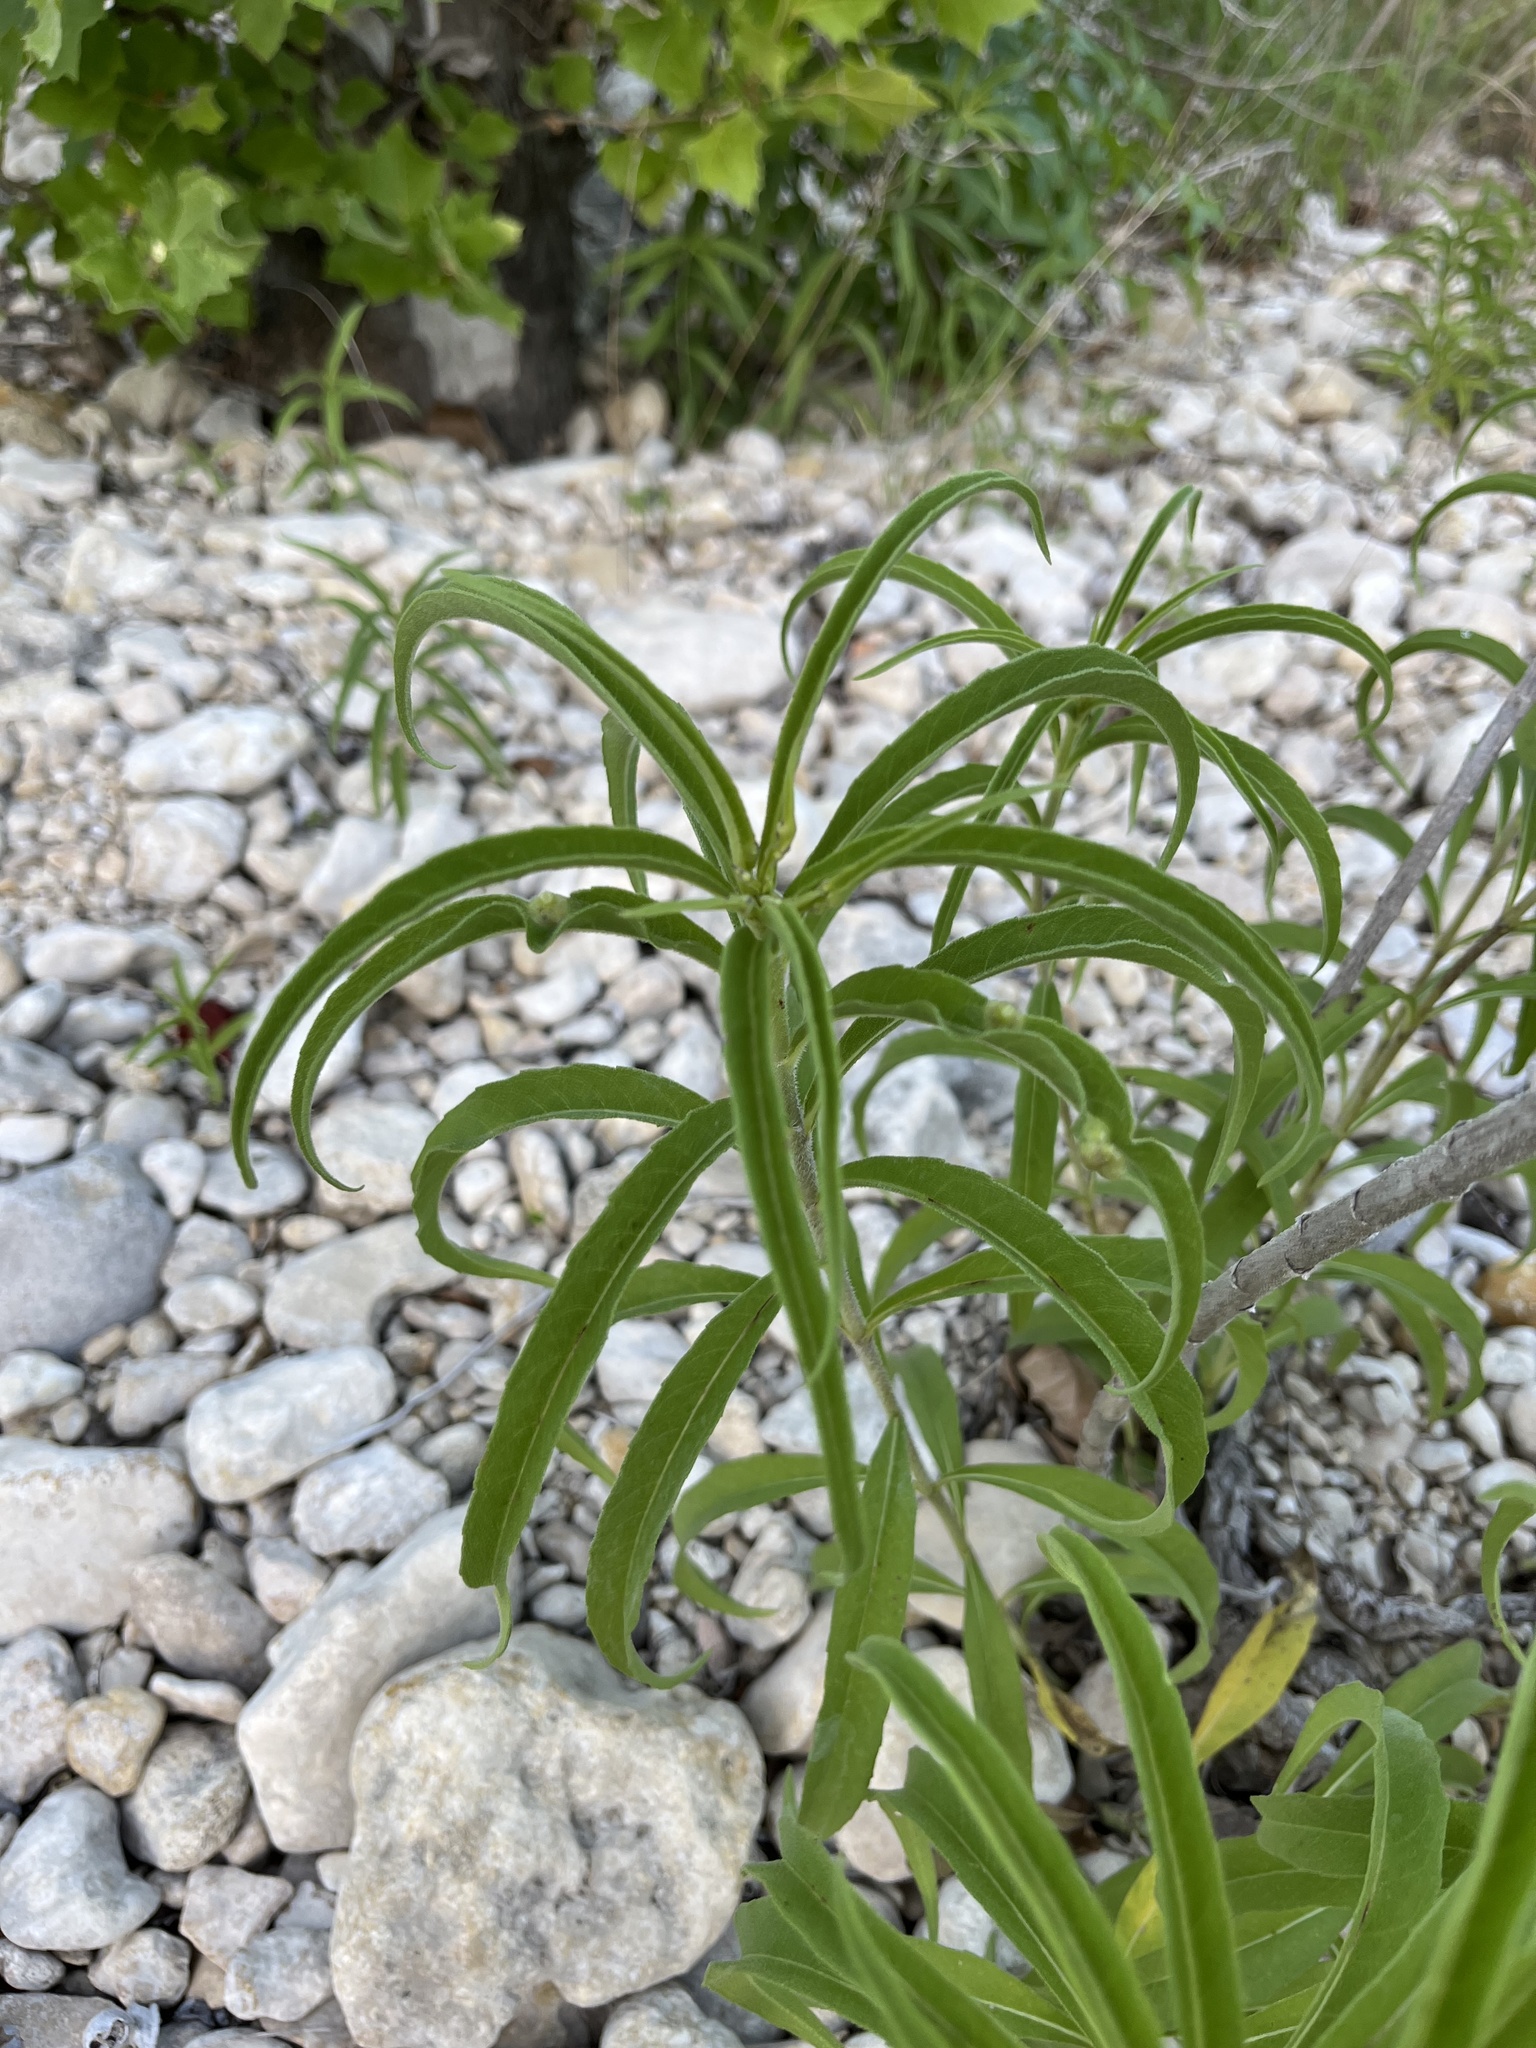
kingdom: Plantae
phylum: Tracheophyta
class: Magnoliopsida
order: Asterales
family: Asteraceae
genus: Helianthus
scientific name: Helianthus maximiliani
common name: Maximilian's sunflower
